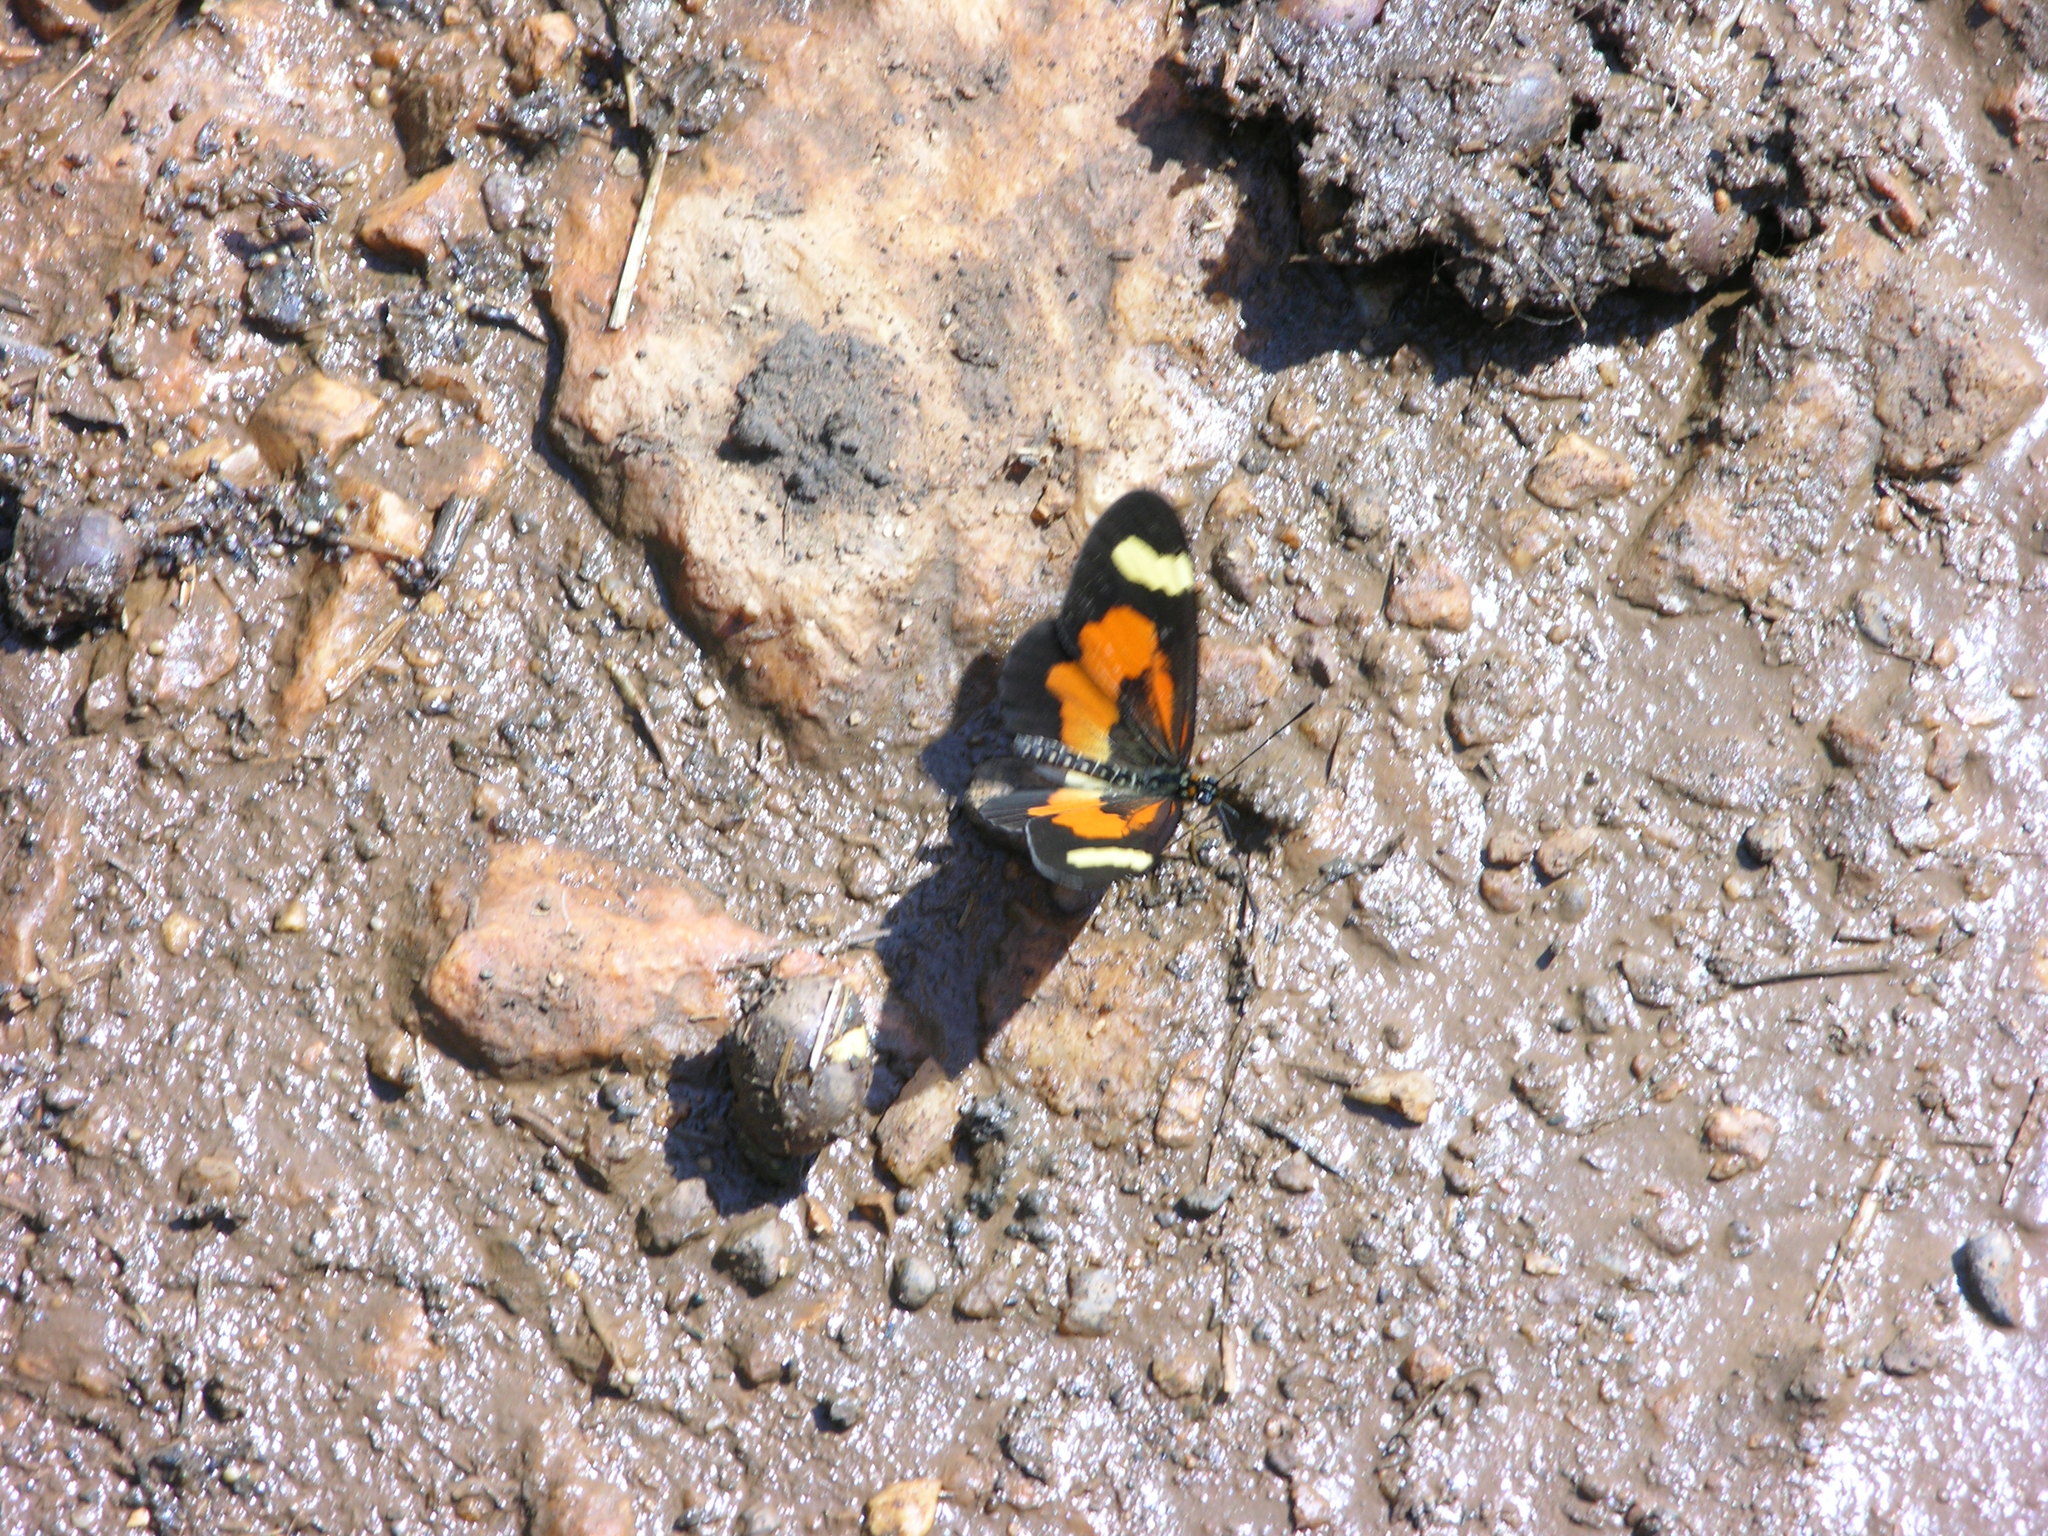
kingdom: Animalia
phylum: Arthropoda
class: Insecta
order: Lepidoptera
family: Nymphalidae
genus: Acraea
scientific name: Acraea
